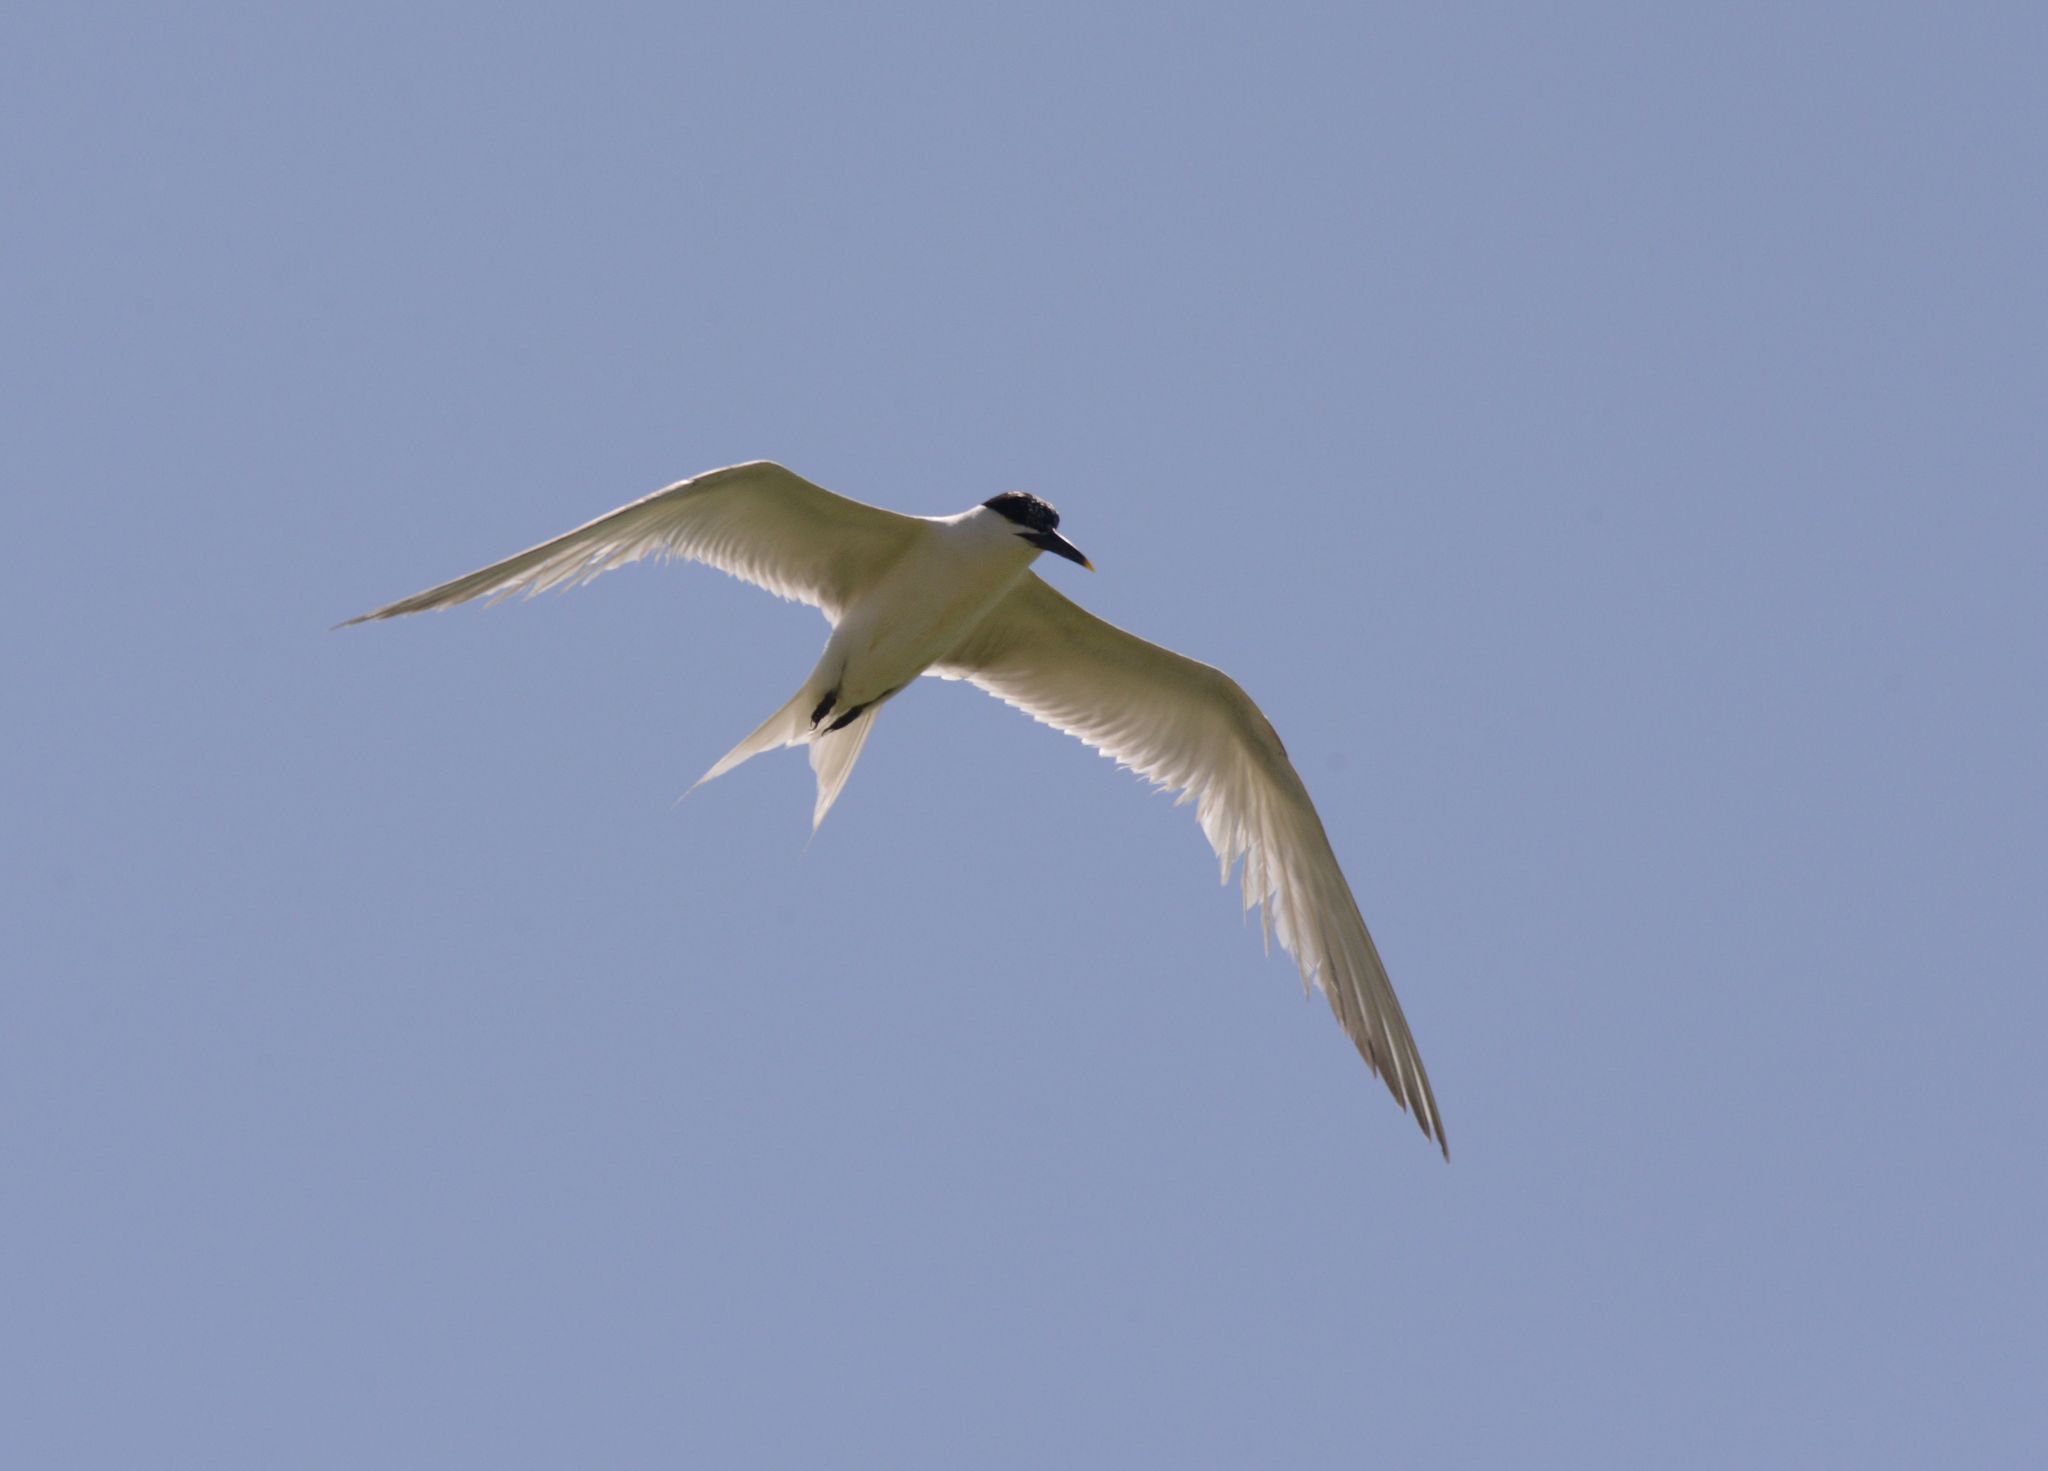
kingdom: Animalia
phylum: Chordata
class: Aves
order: Charadriiformes
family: Laridae
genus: Thalasseus
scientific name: Thalasseus sandvicensis
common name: Sandwich tern
